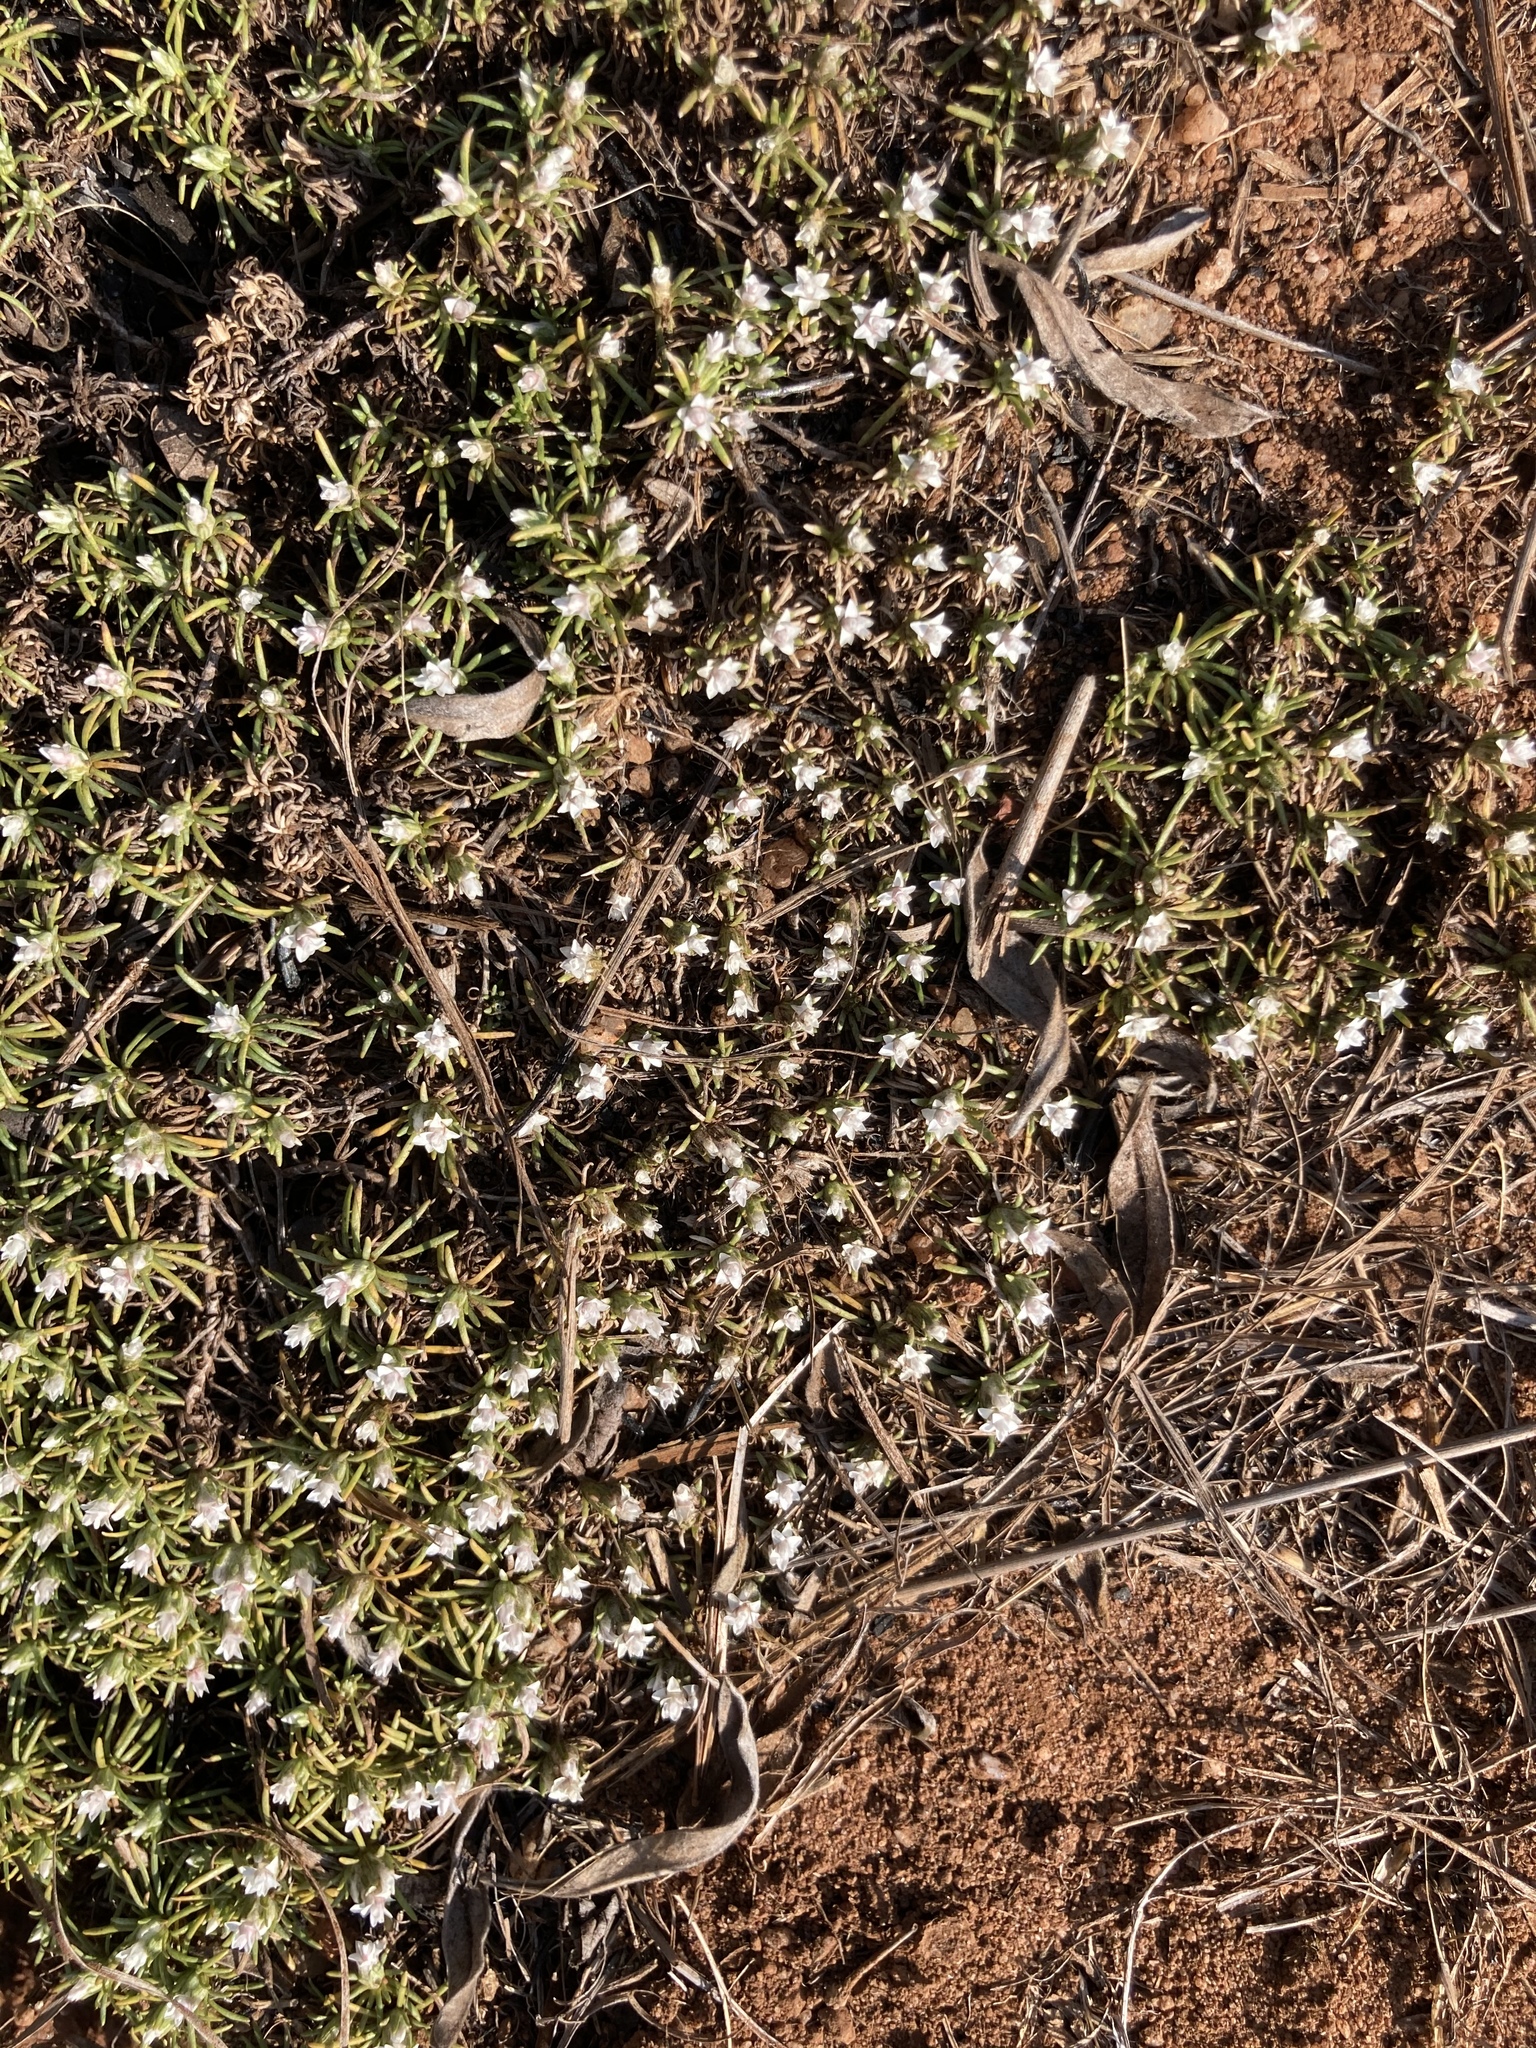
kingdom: Plantae
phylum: Tracheophyta
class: Magnoliopsida
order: Asterales
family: Asteraceae
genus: Helichrysum
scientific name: Helichrysum caespititium
